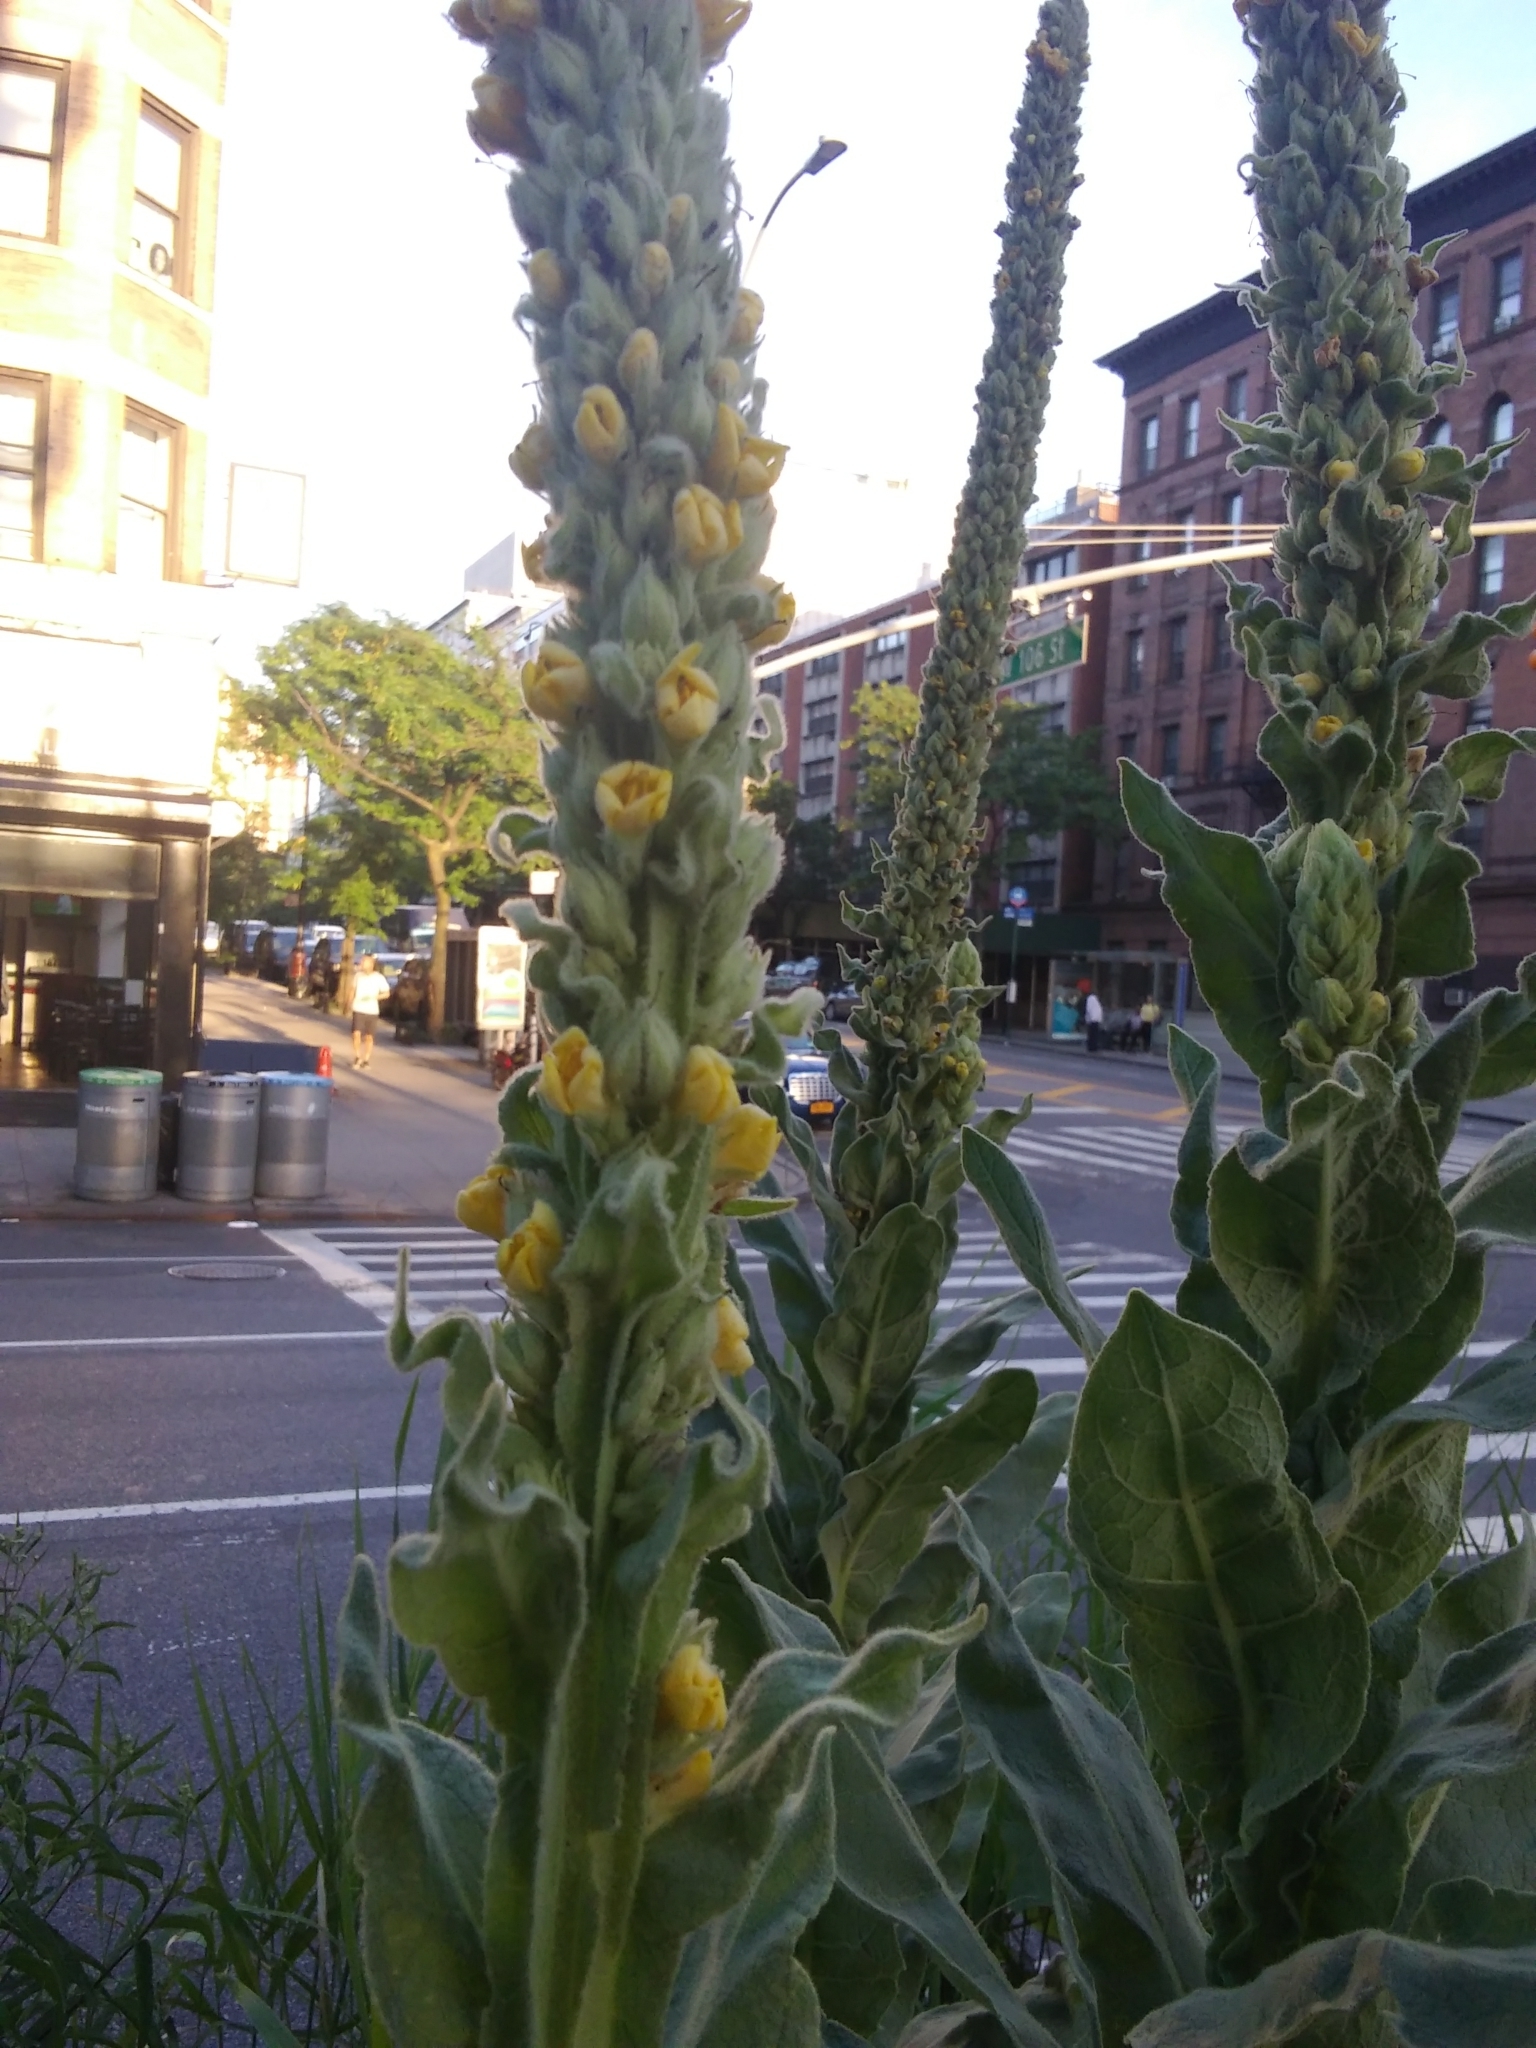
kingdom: Plantae
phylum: Tracheophyta
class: Magnoliopsida
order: Lamiales
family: Scrophulariaceae
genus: Verbascum
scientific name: Verbascum thapsus
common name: Common mullein
